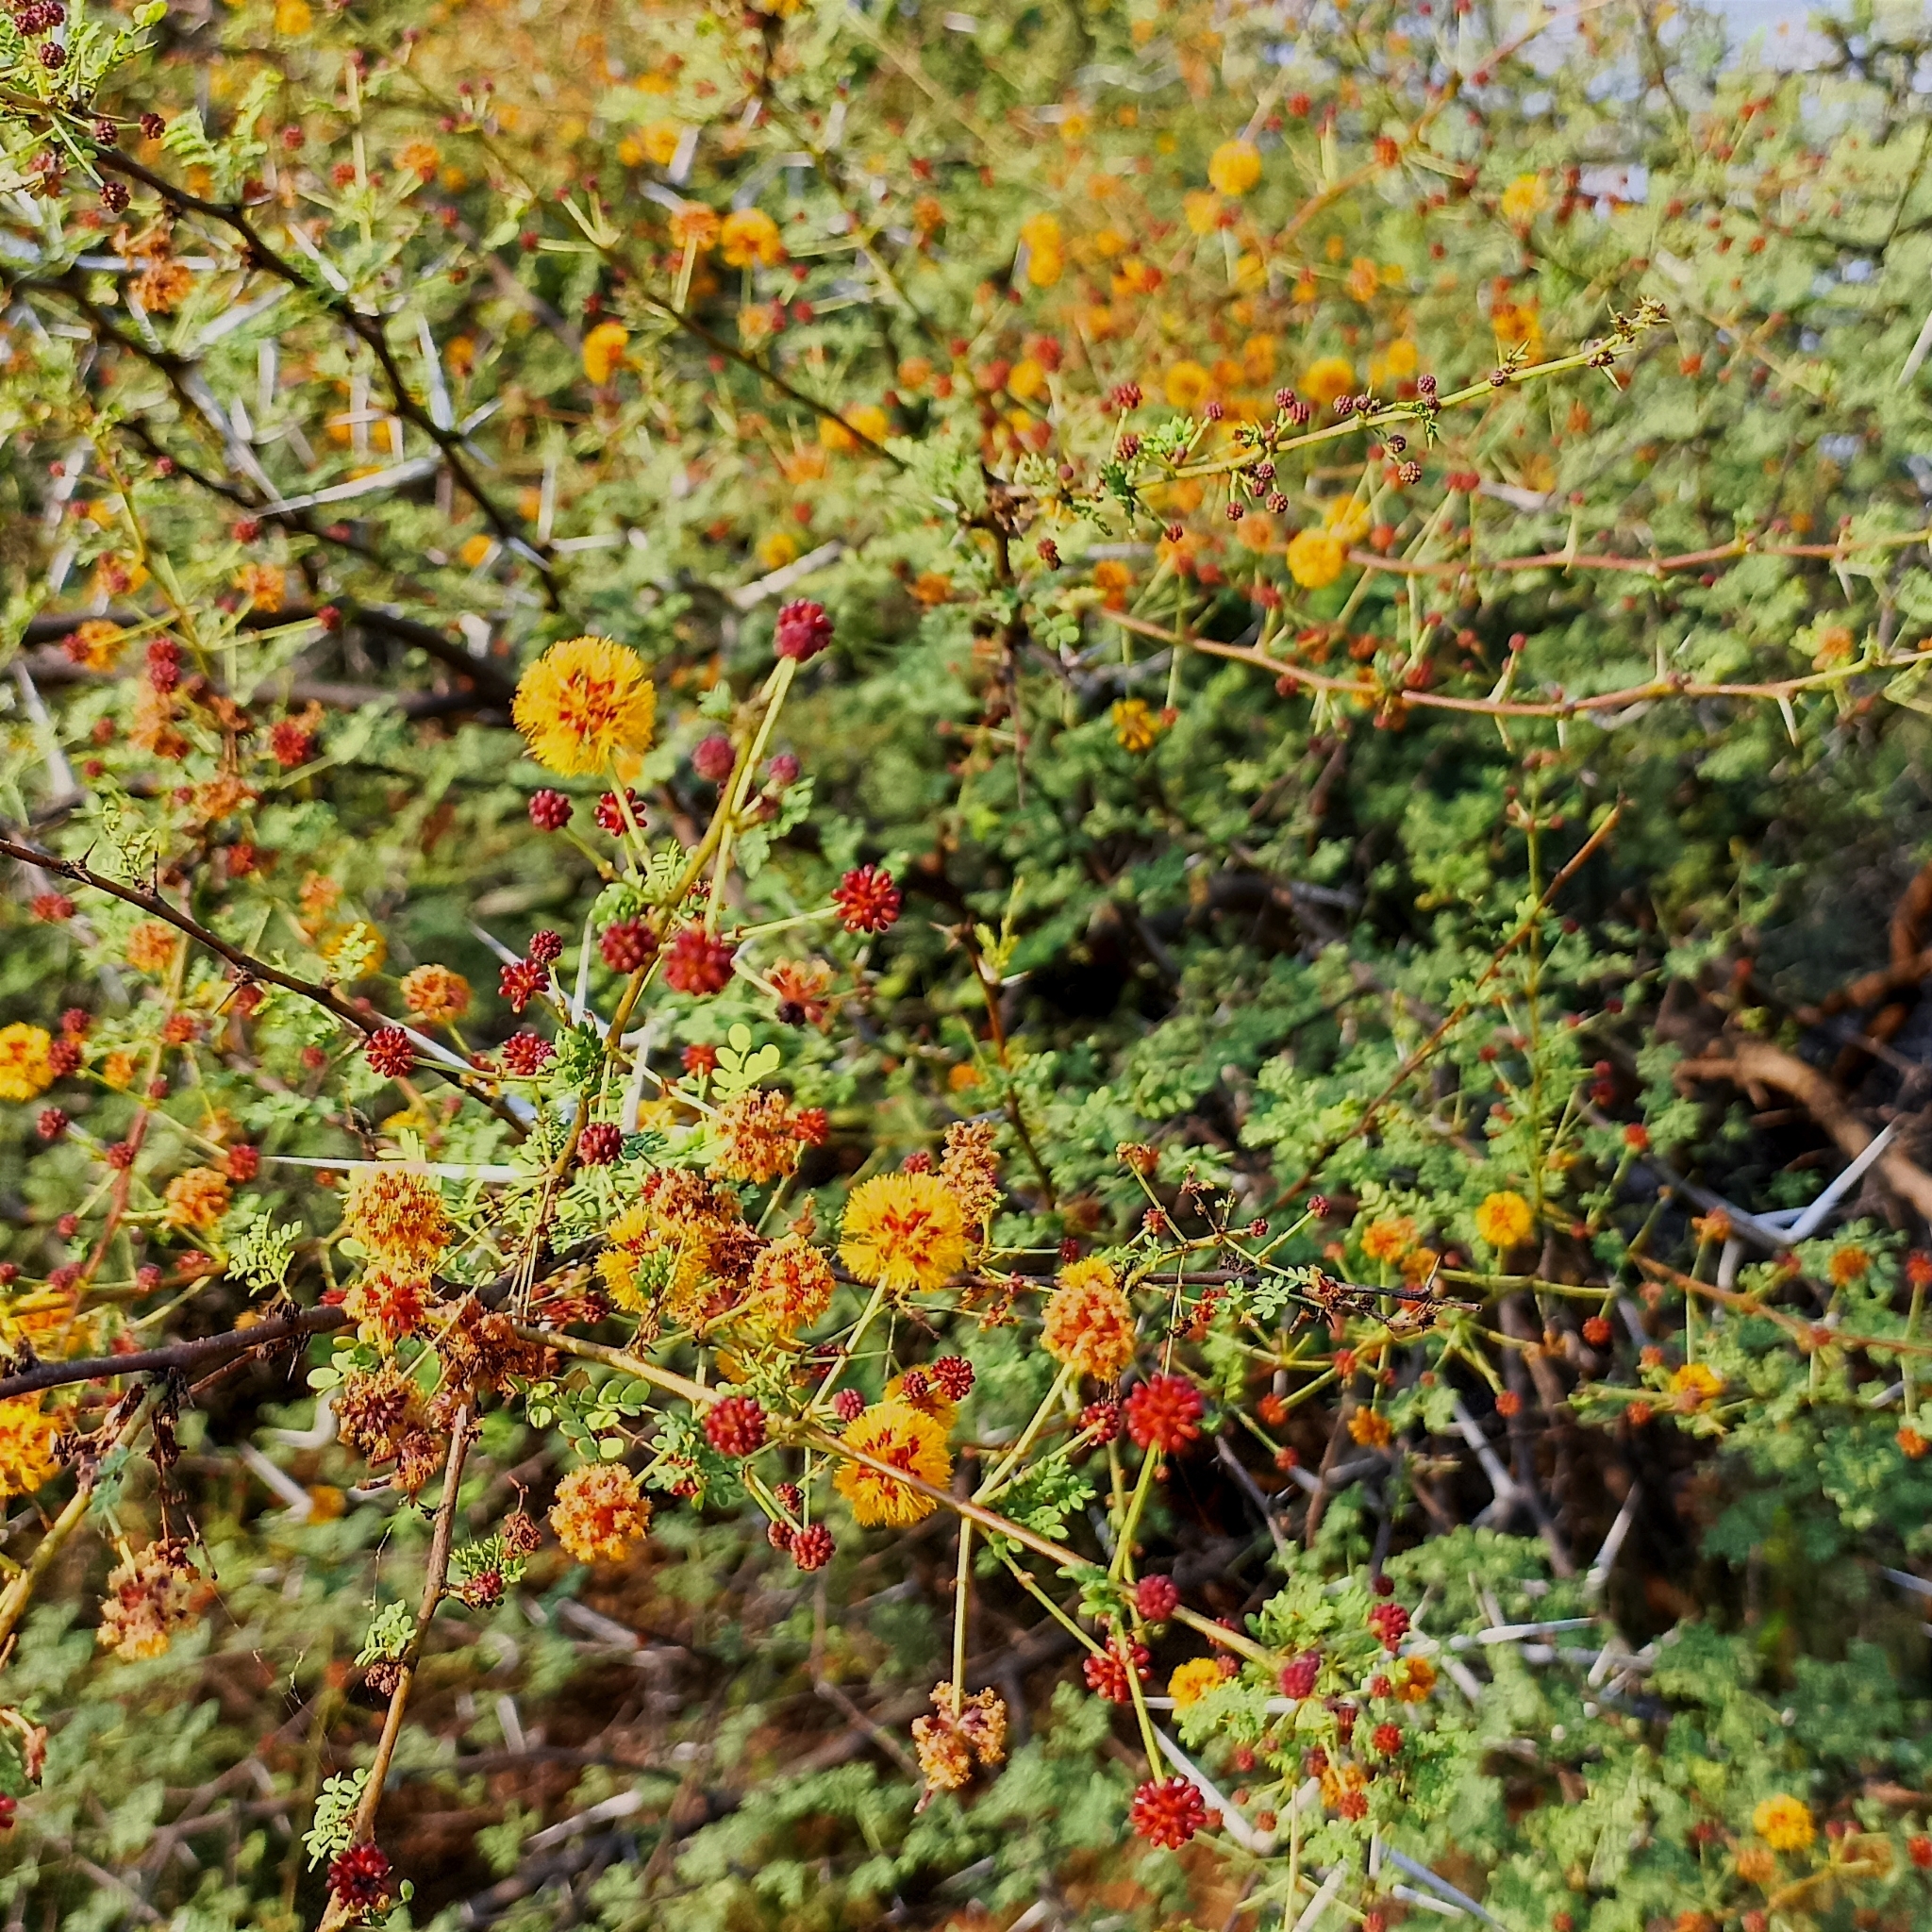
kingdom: Plantae
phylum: Tracheophyta
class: Magnoliopsida
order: Fabales
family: Fabaceae
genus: Vachellia
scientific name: Vachellia eburnea
